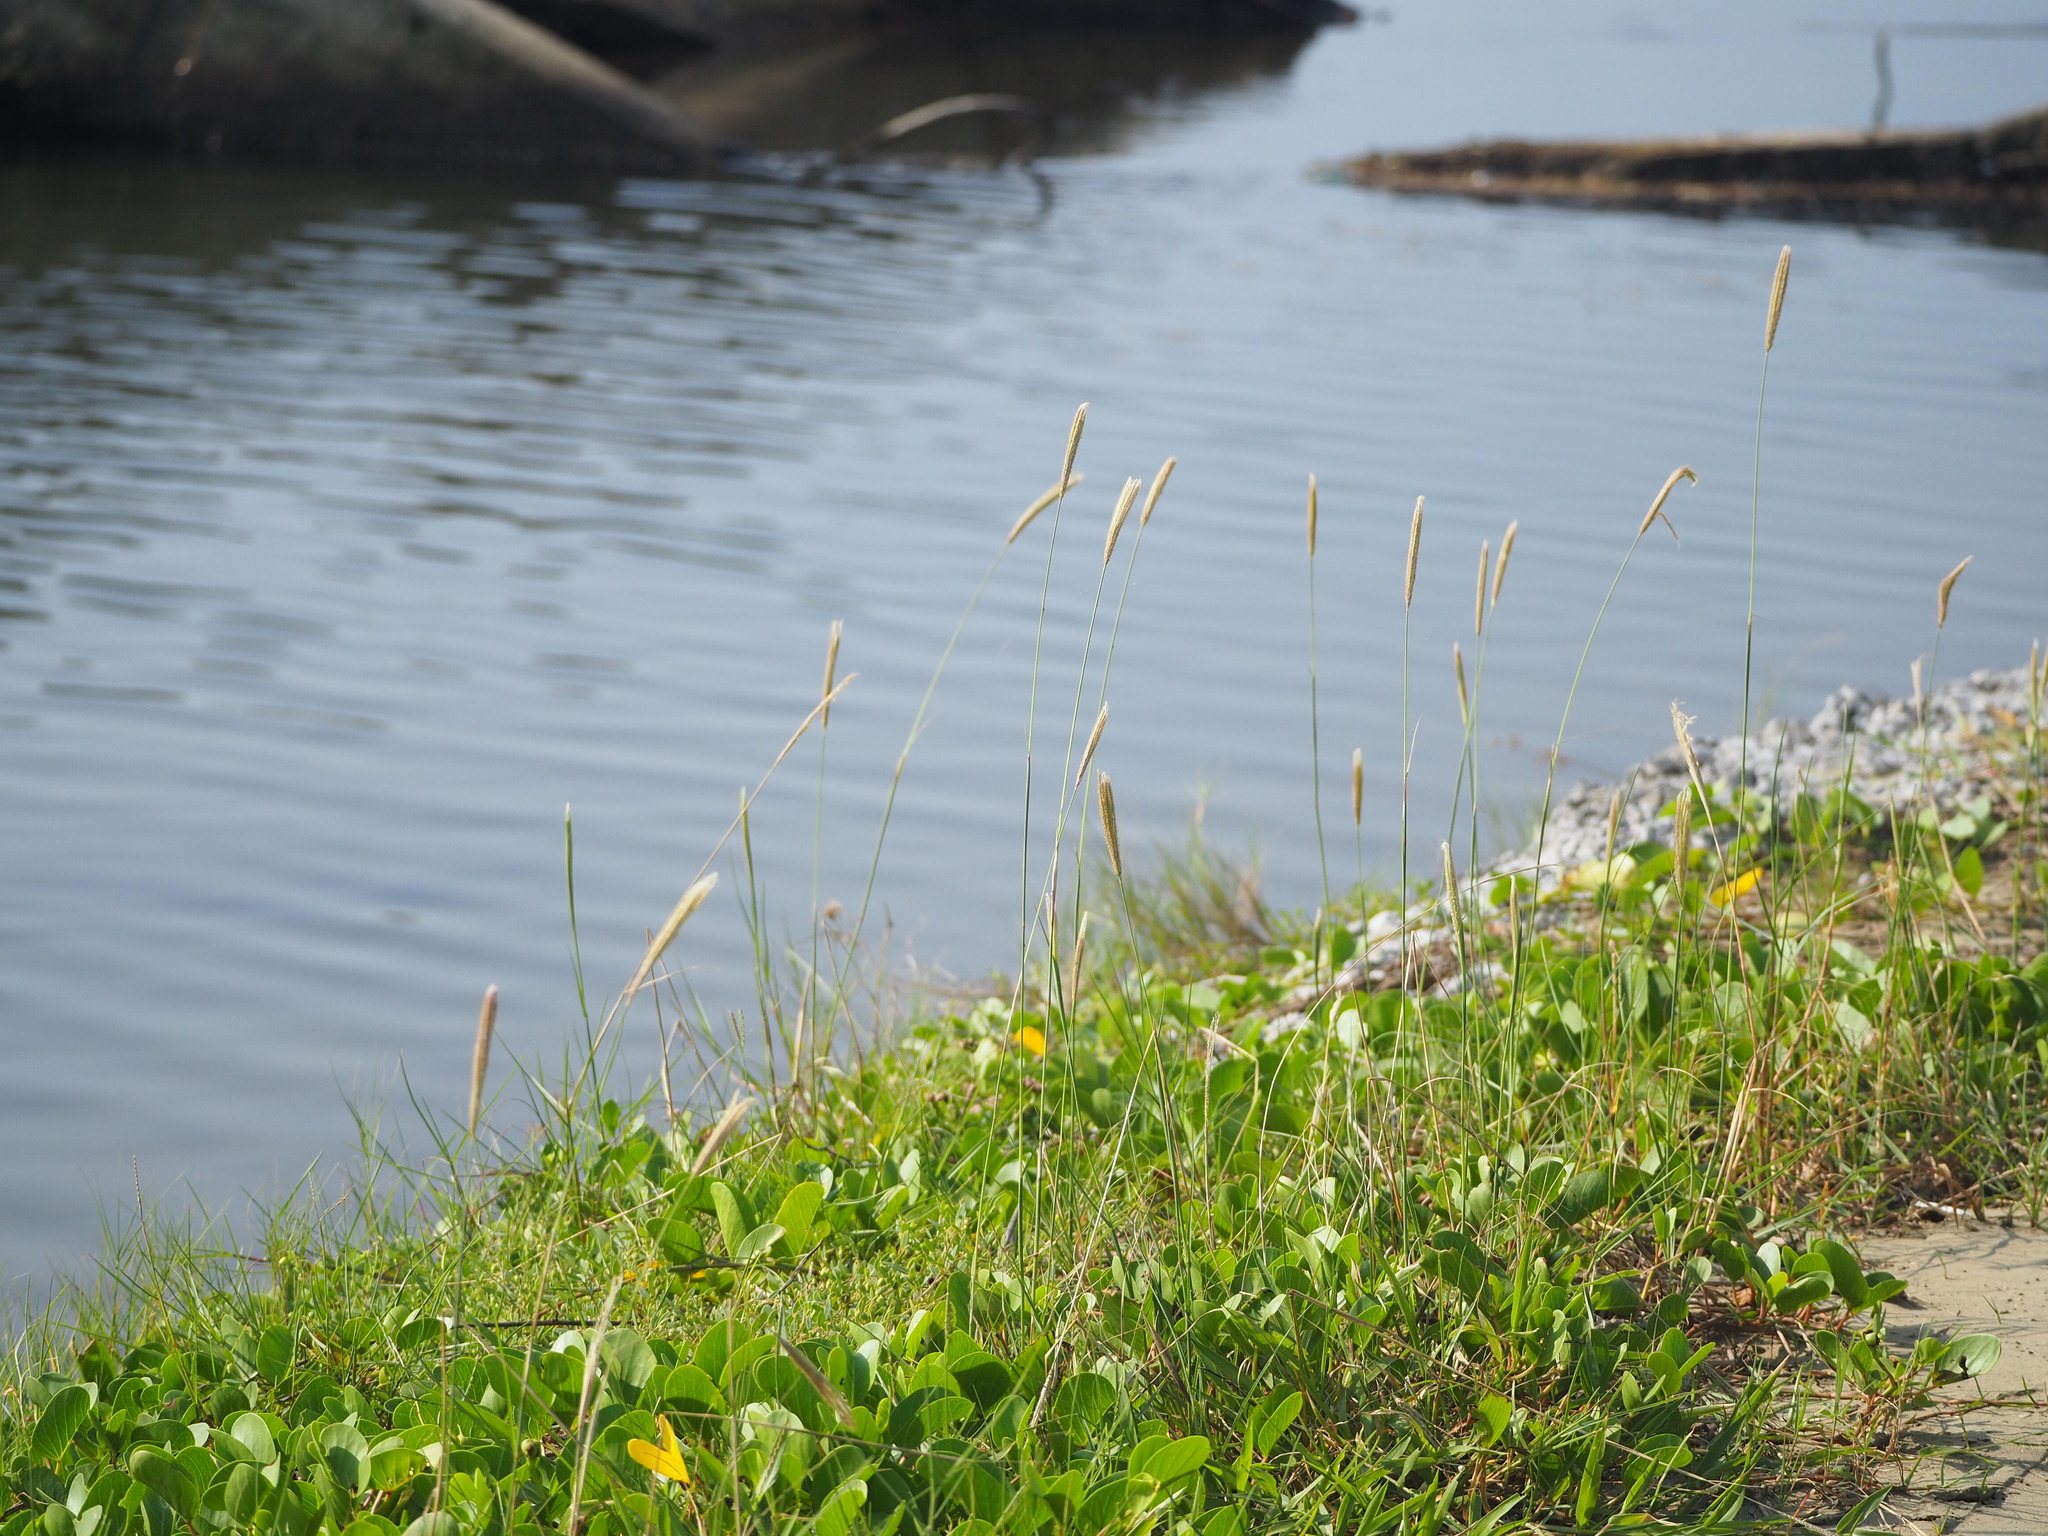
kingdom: Plantae
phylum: Tracheophyta
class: Liliopsida
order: Poales
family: Poaceae
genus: Chloris
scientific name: Chloris formosana
